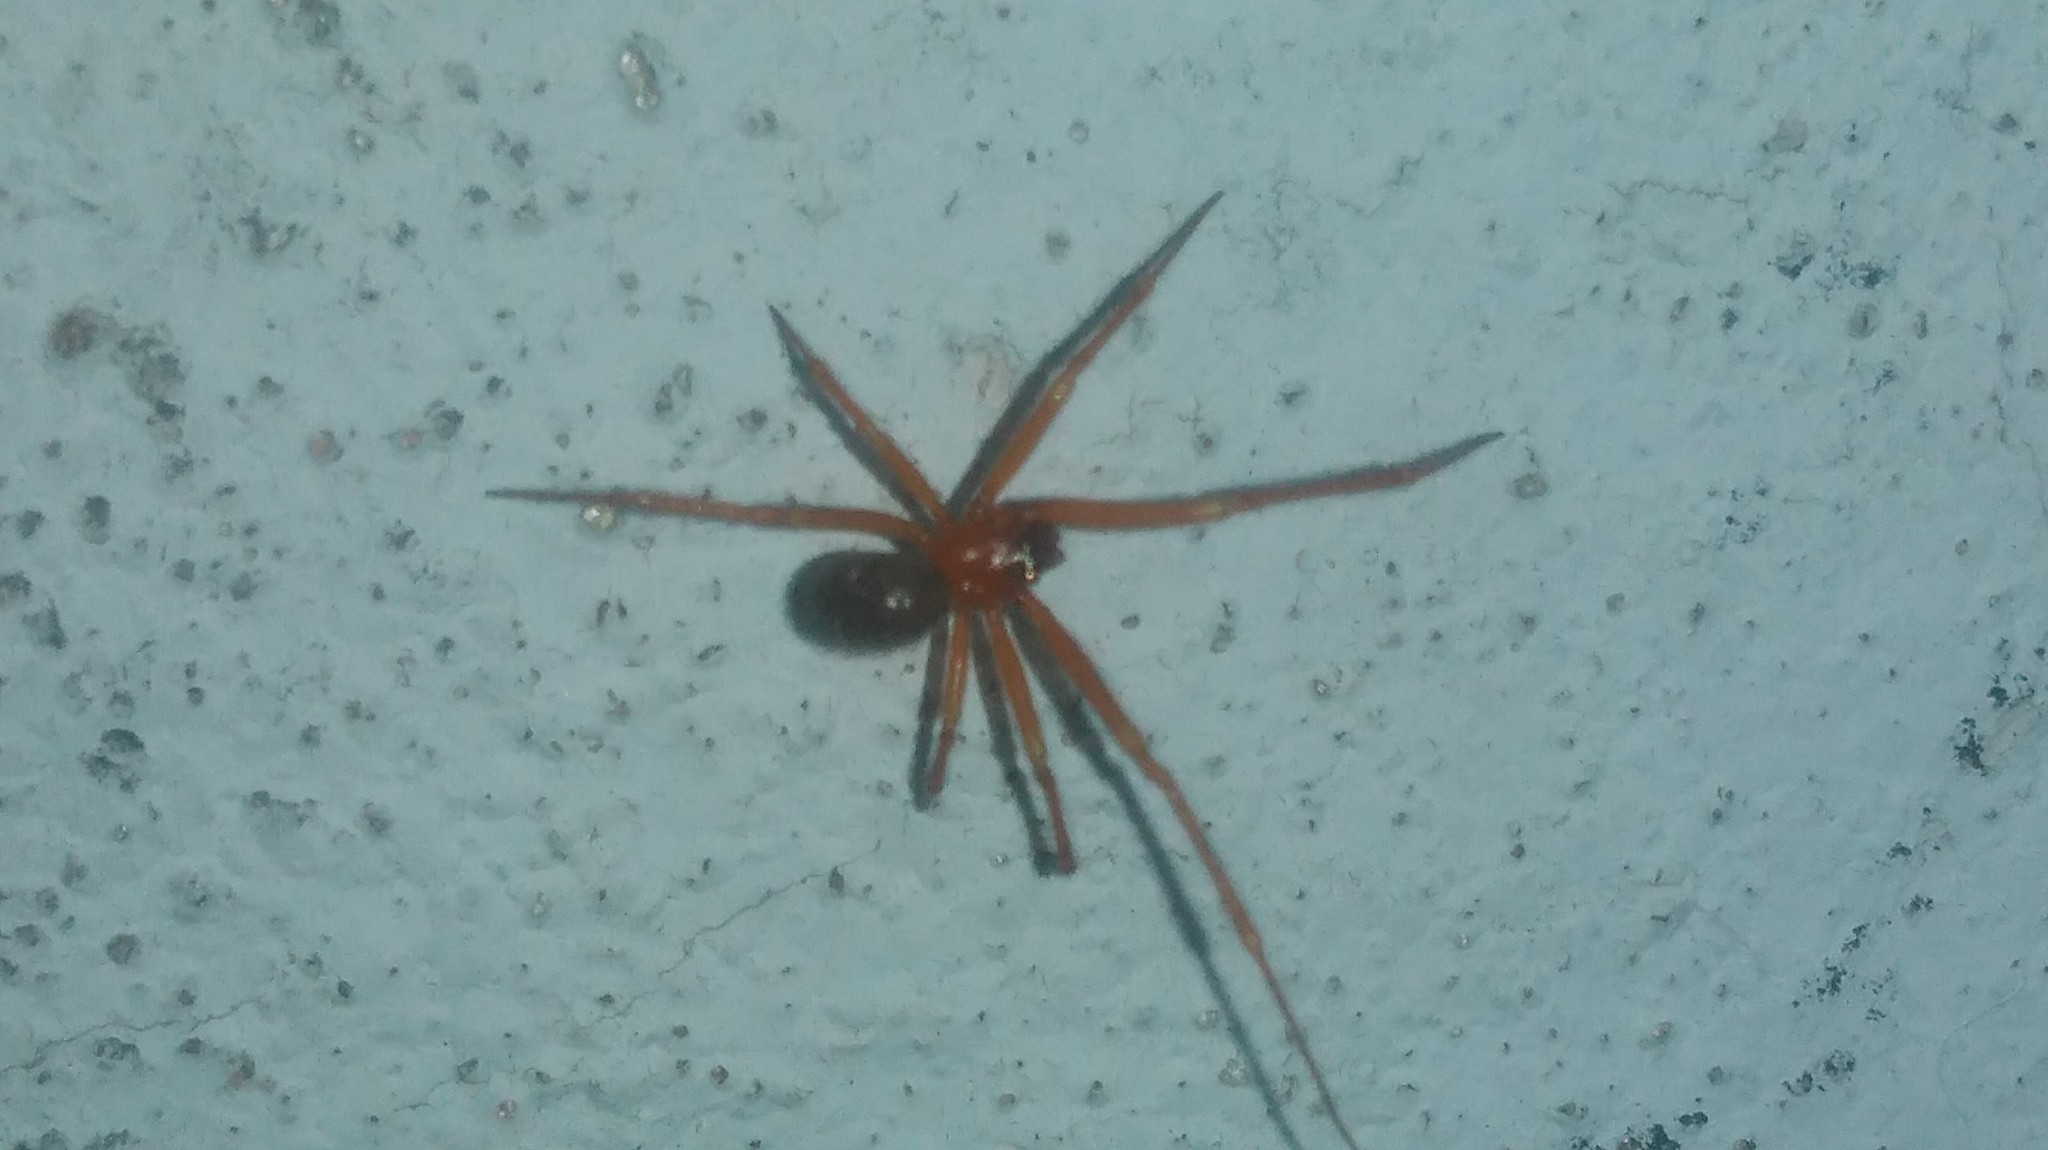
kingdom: Animalia
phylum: Arthropoda
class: Arachnida
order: Araneae
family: Theridiidae
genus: Nesticodes
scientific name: Nesticodes rufipes
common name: Cobweb spiders
